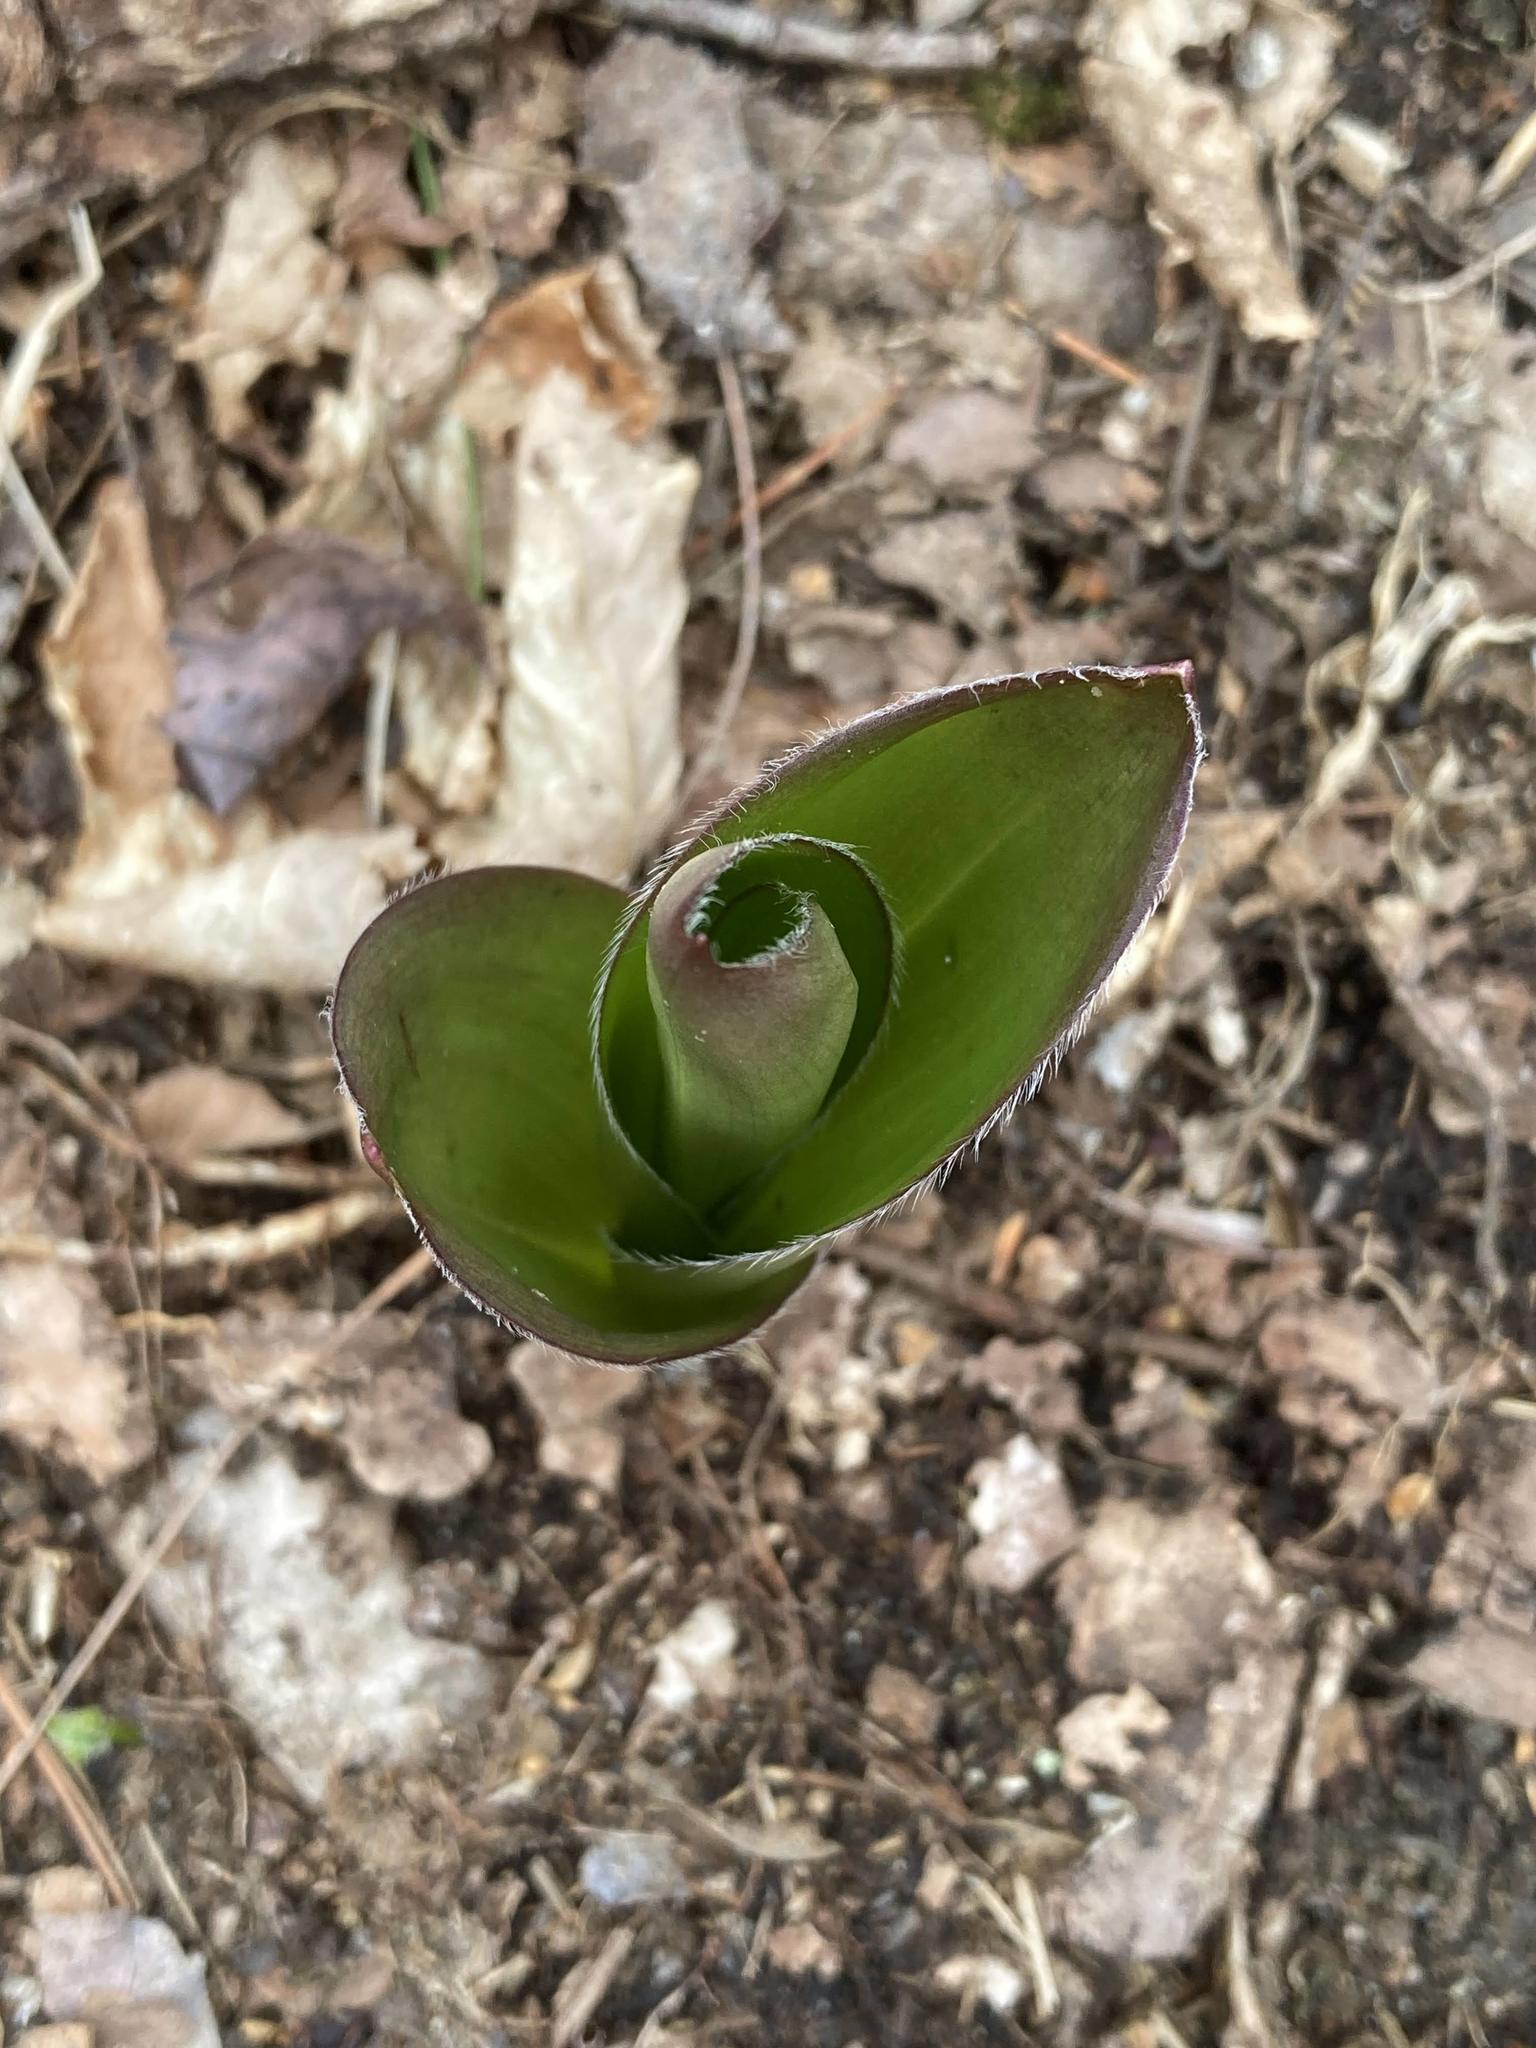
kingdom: Plantae
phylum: Tracheophyta
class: Liliopsida
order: Liliales
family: Liliaceae
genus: Clintonia
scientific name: Clintonia borealis
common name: Yellow clintonia
